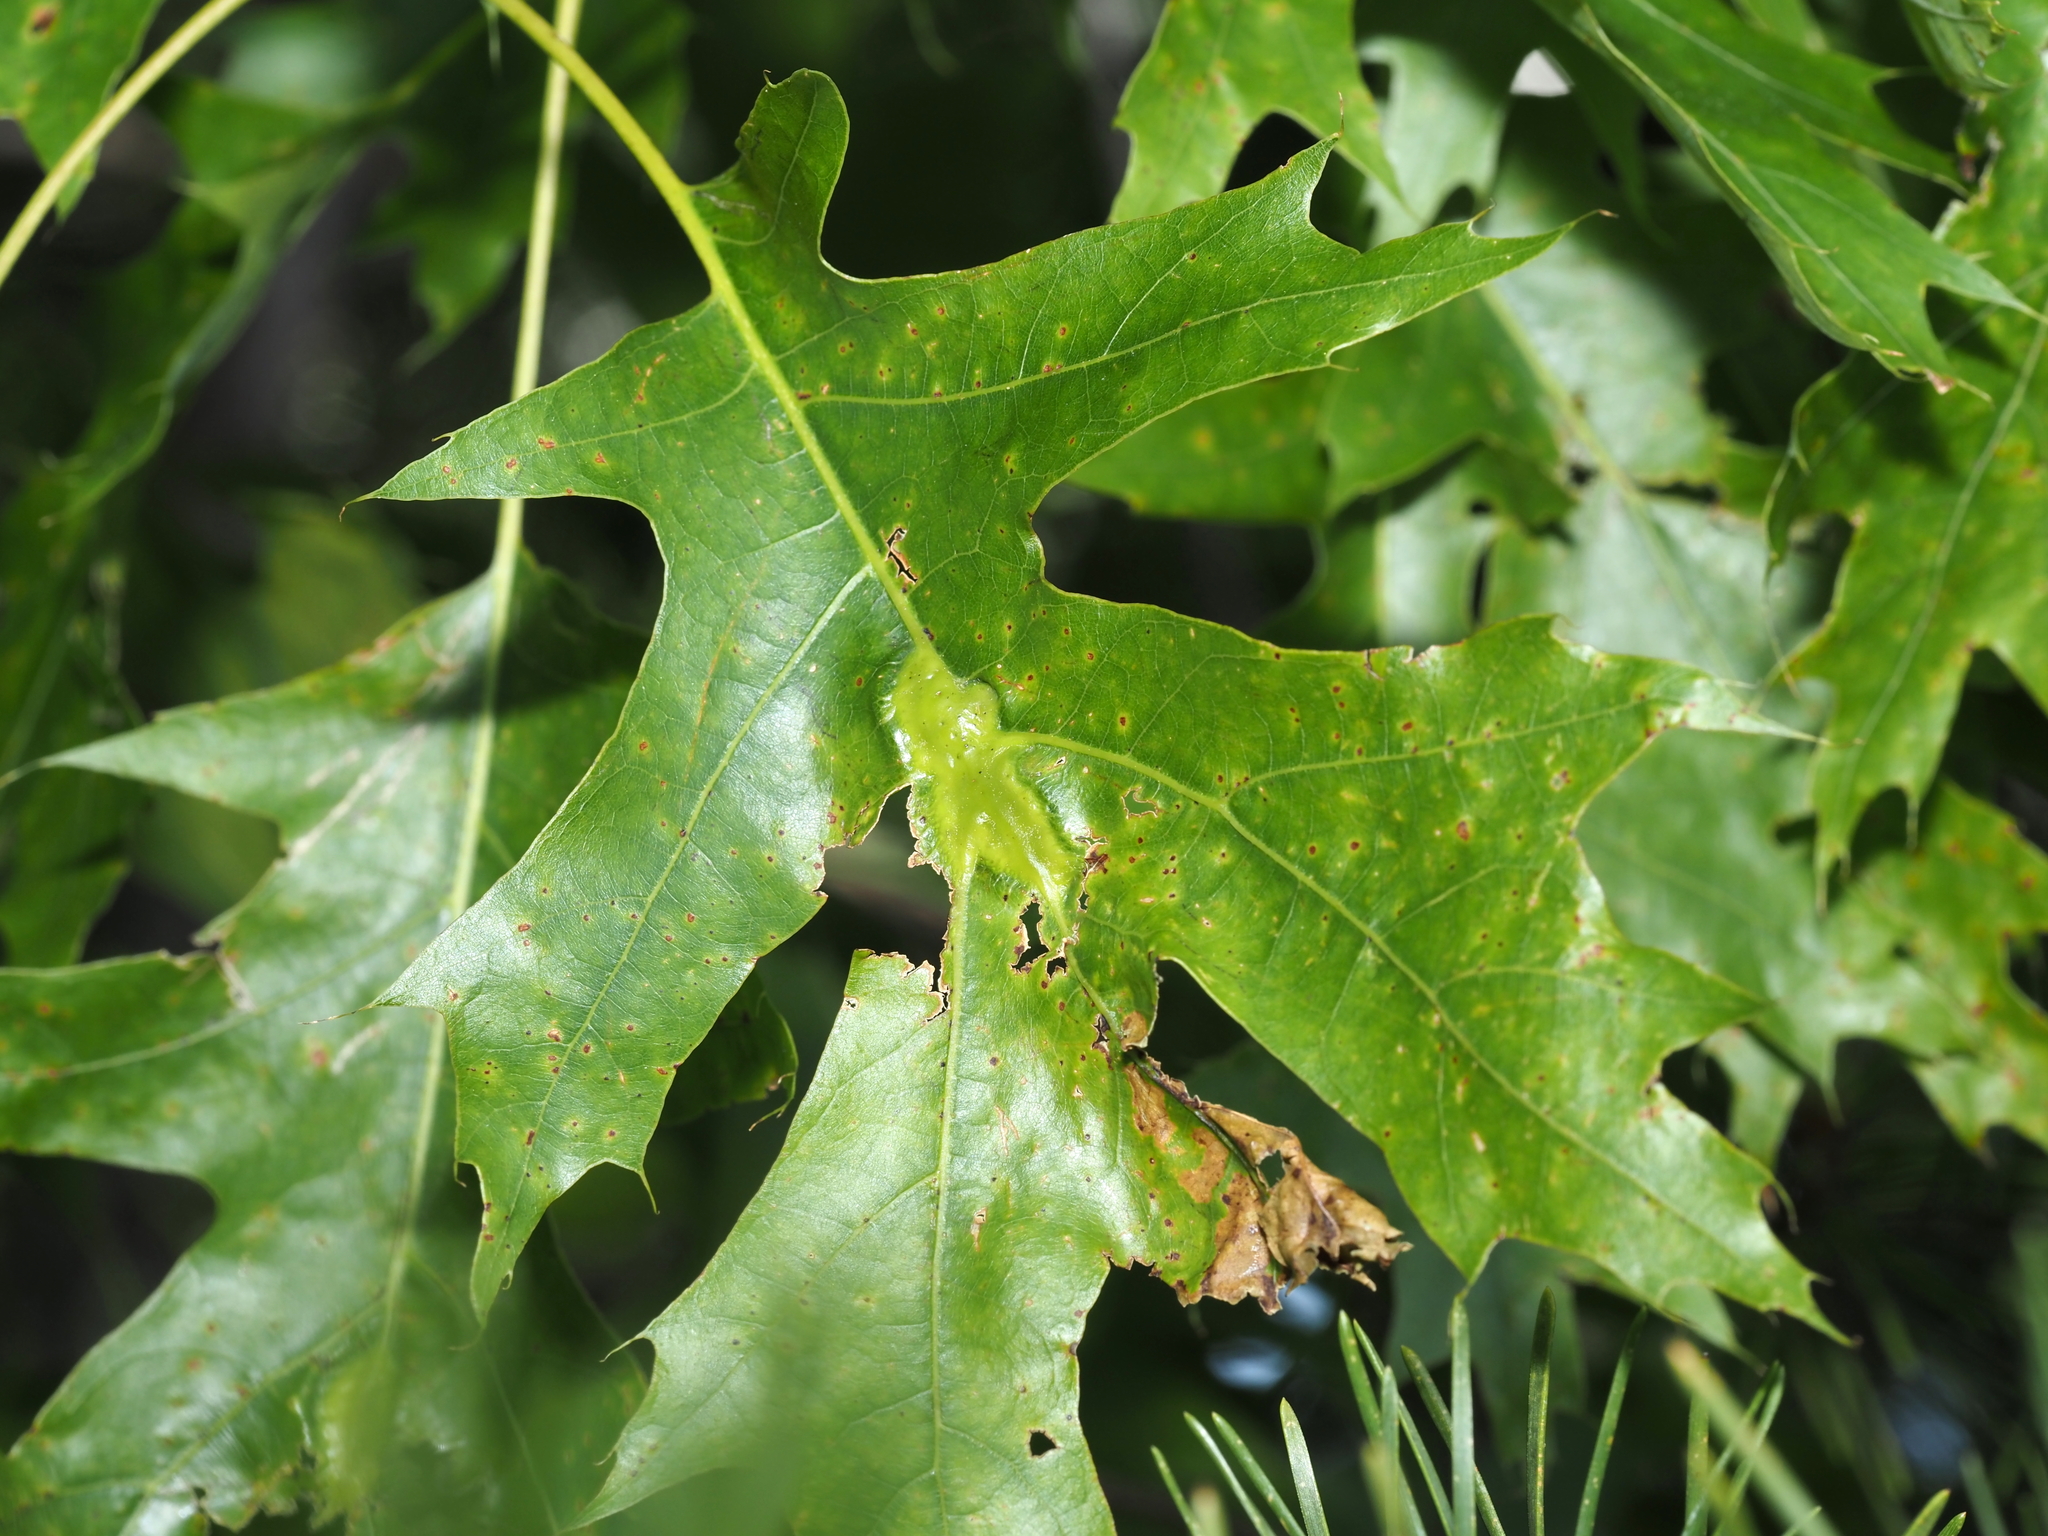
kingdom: Animalia
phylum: Arthropoda
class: Insecta
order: Hymenoptera
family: Cynipidae
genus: Melikaiella
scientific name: Melikaiella tumifica
